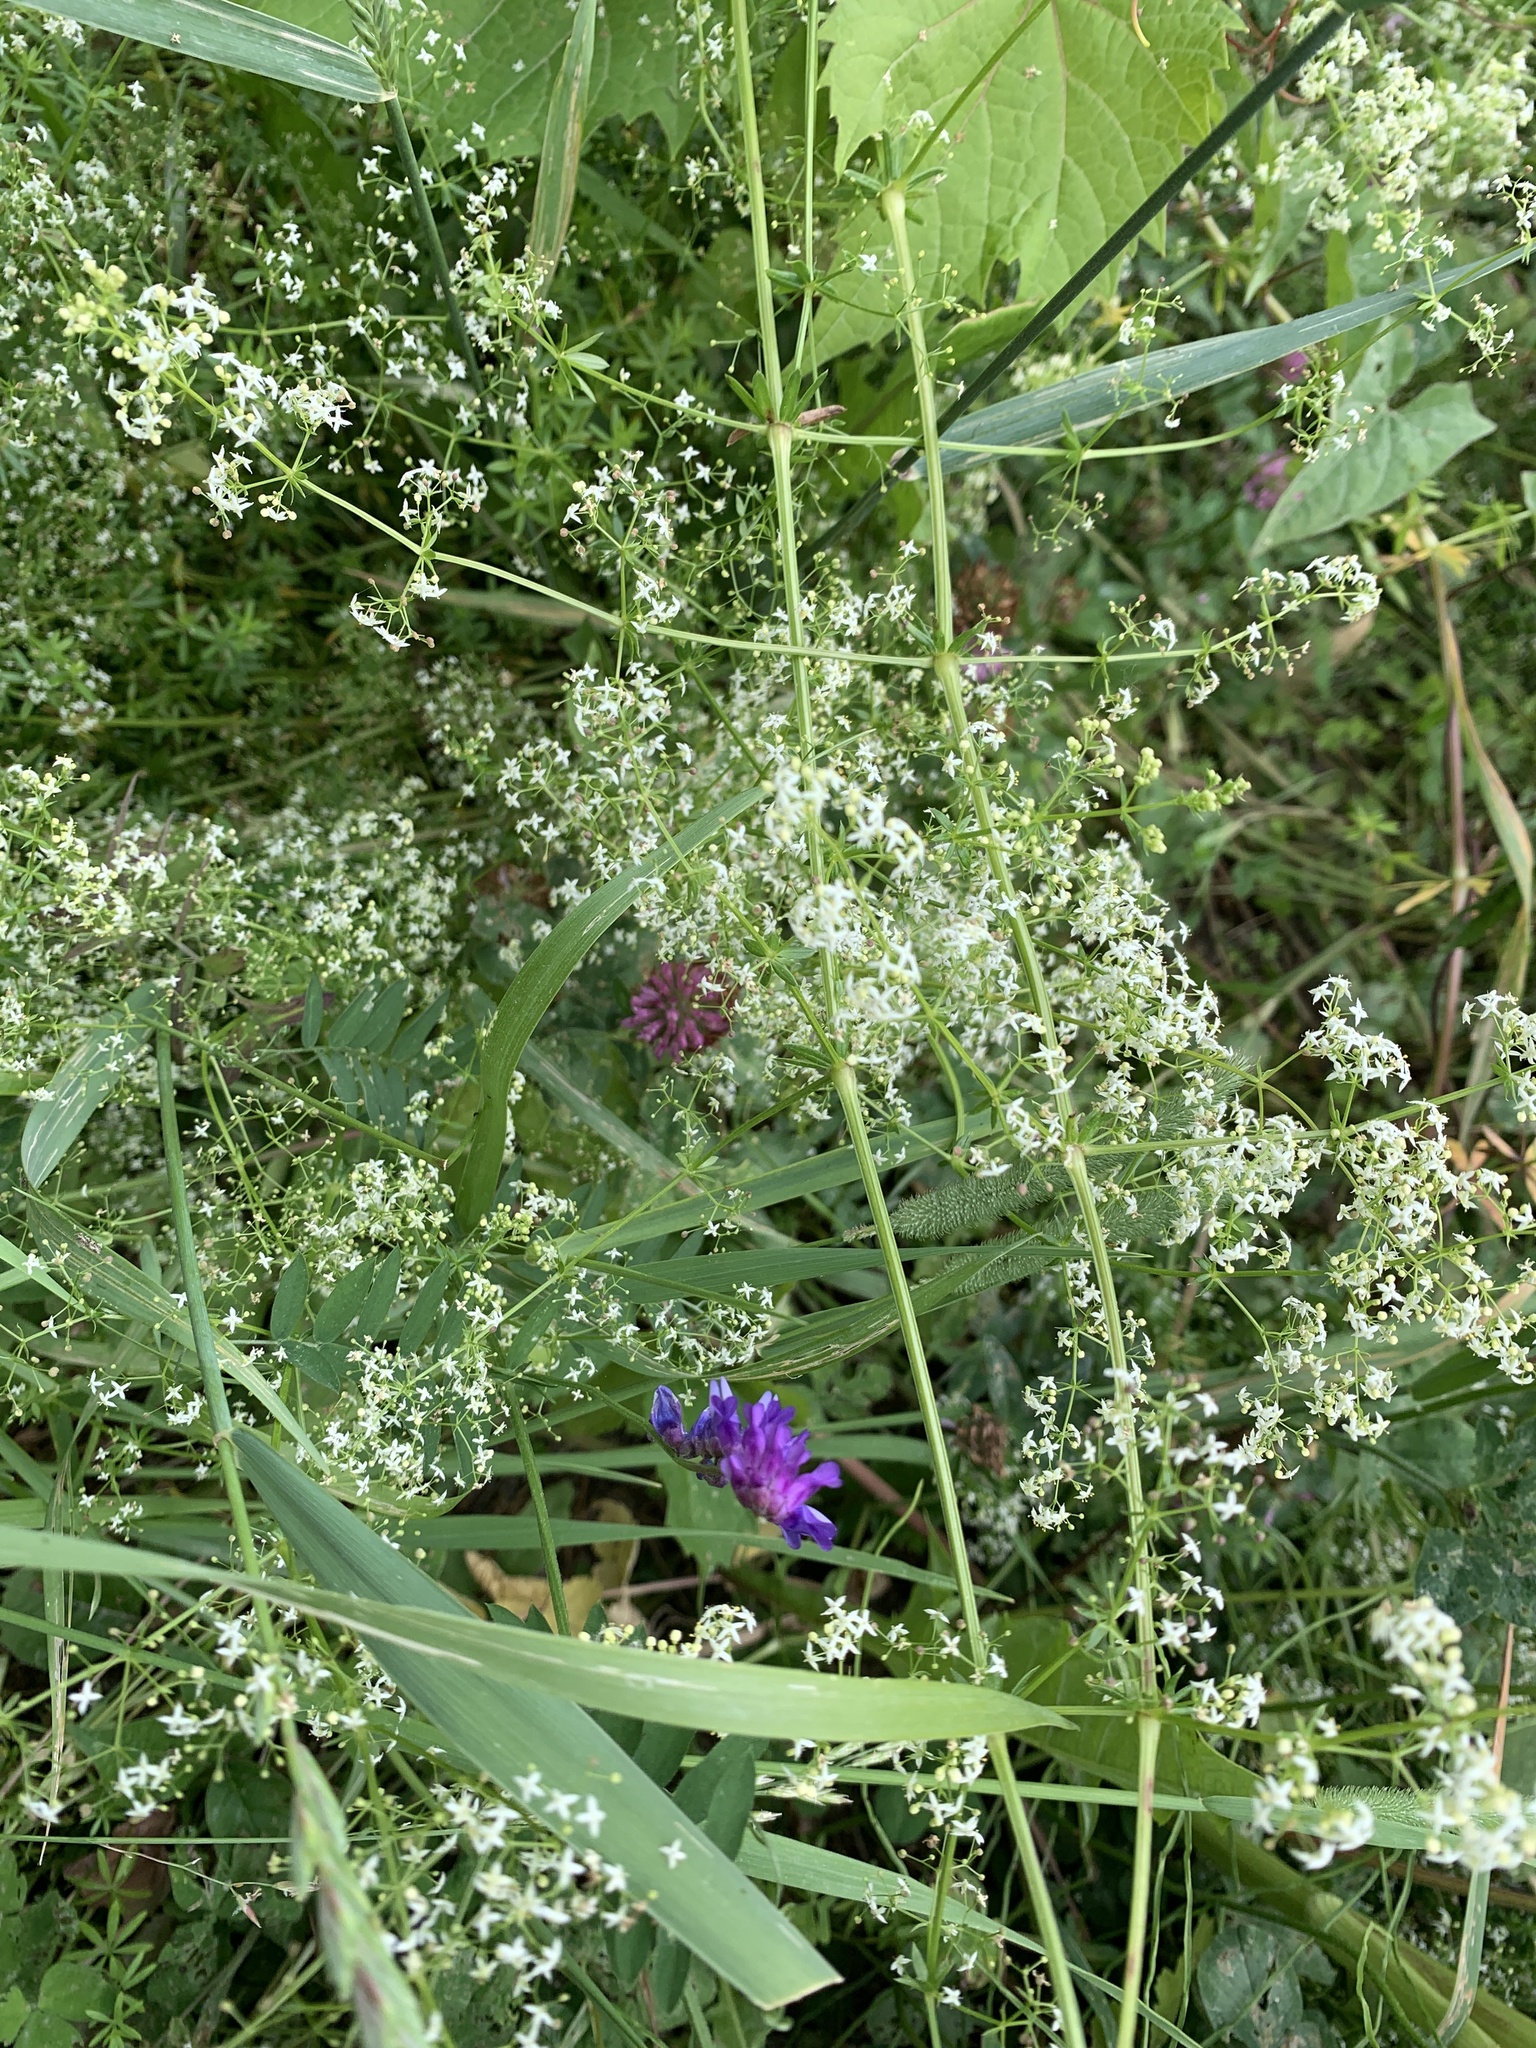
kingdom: Plantae
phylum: Tracheophyta
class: Magnoliopsida
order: Gentianales
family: Rubiaceae
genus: Galium
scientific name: Galium mollugo
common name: Hedge bedstraw
